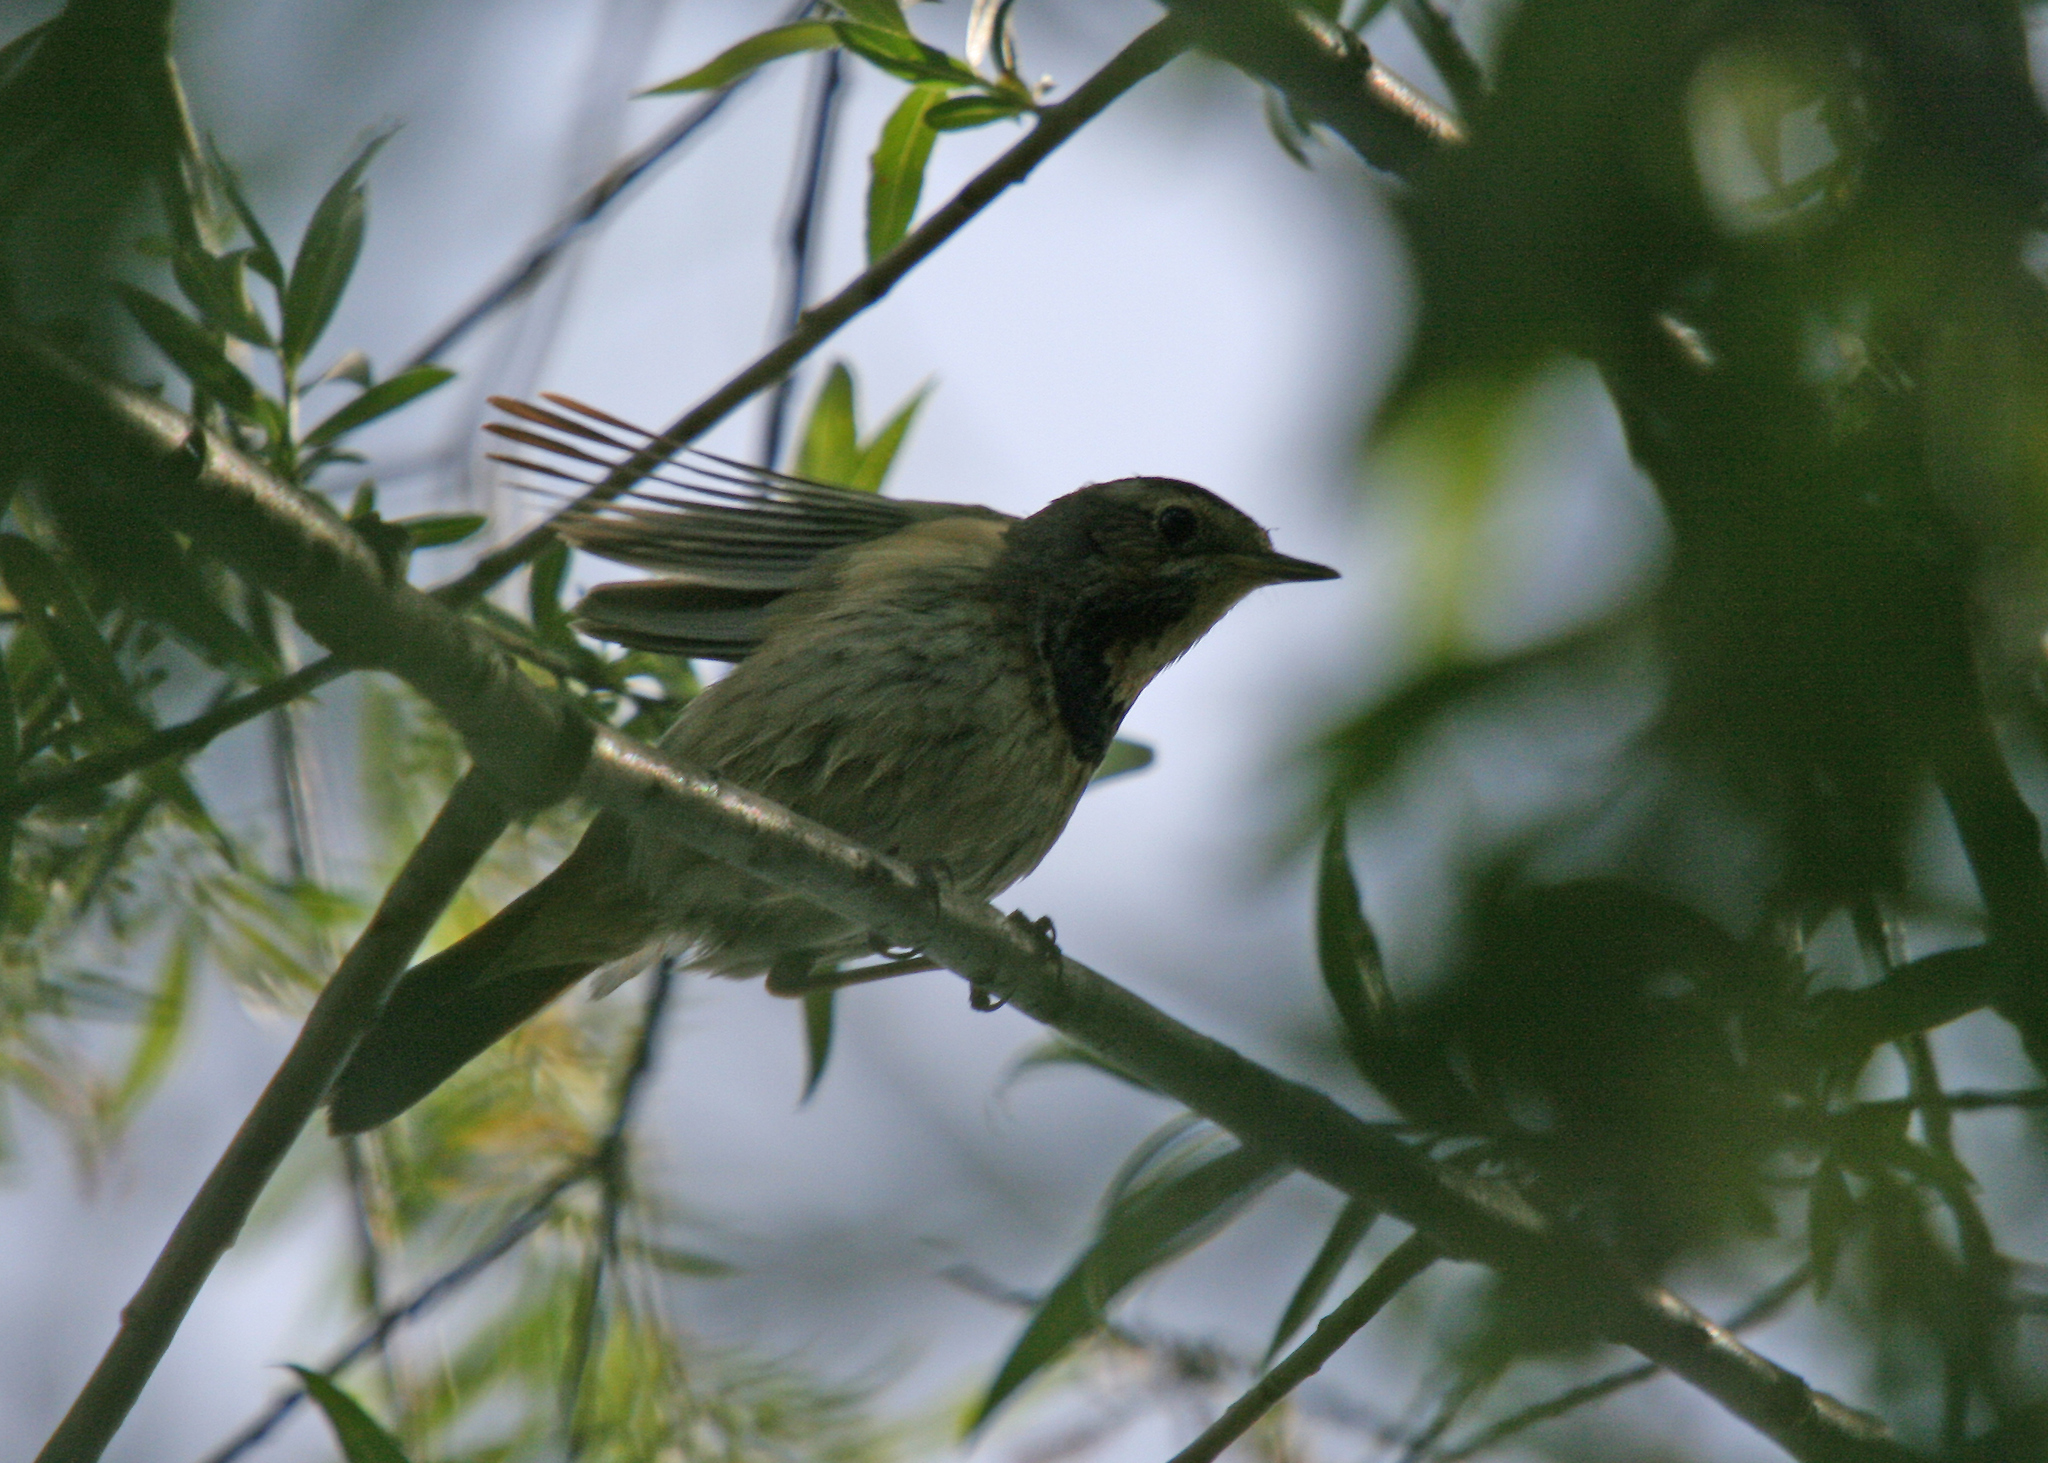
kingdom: Animalia
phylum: Chordata
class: Aves
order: Passeriformes
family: Muscicapidae
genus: Luscinia
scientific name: Luscinia svecica
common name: Bluethroat
